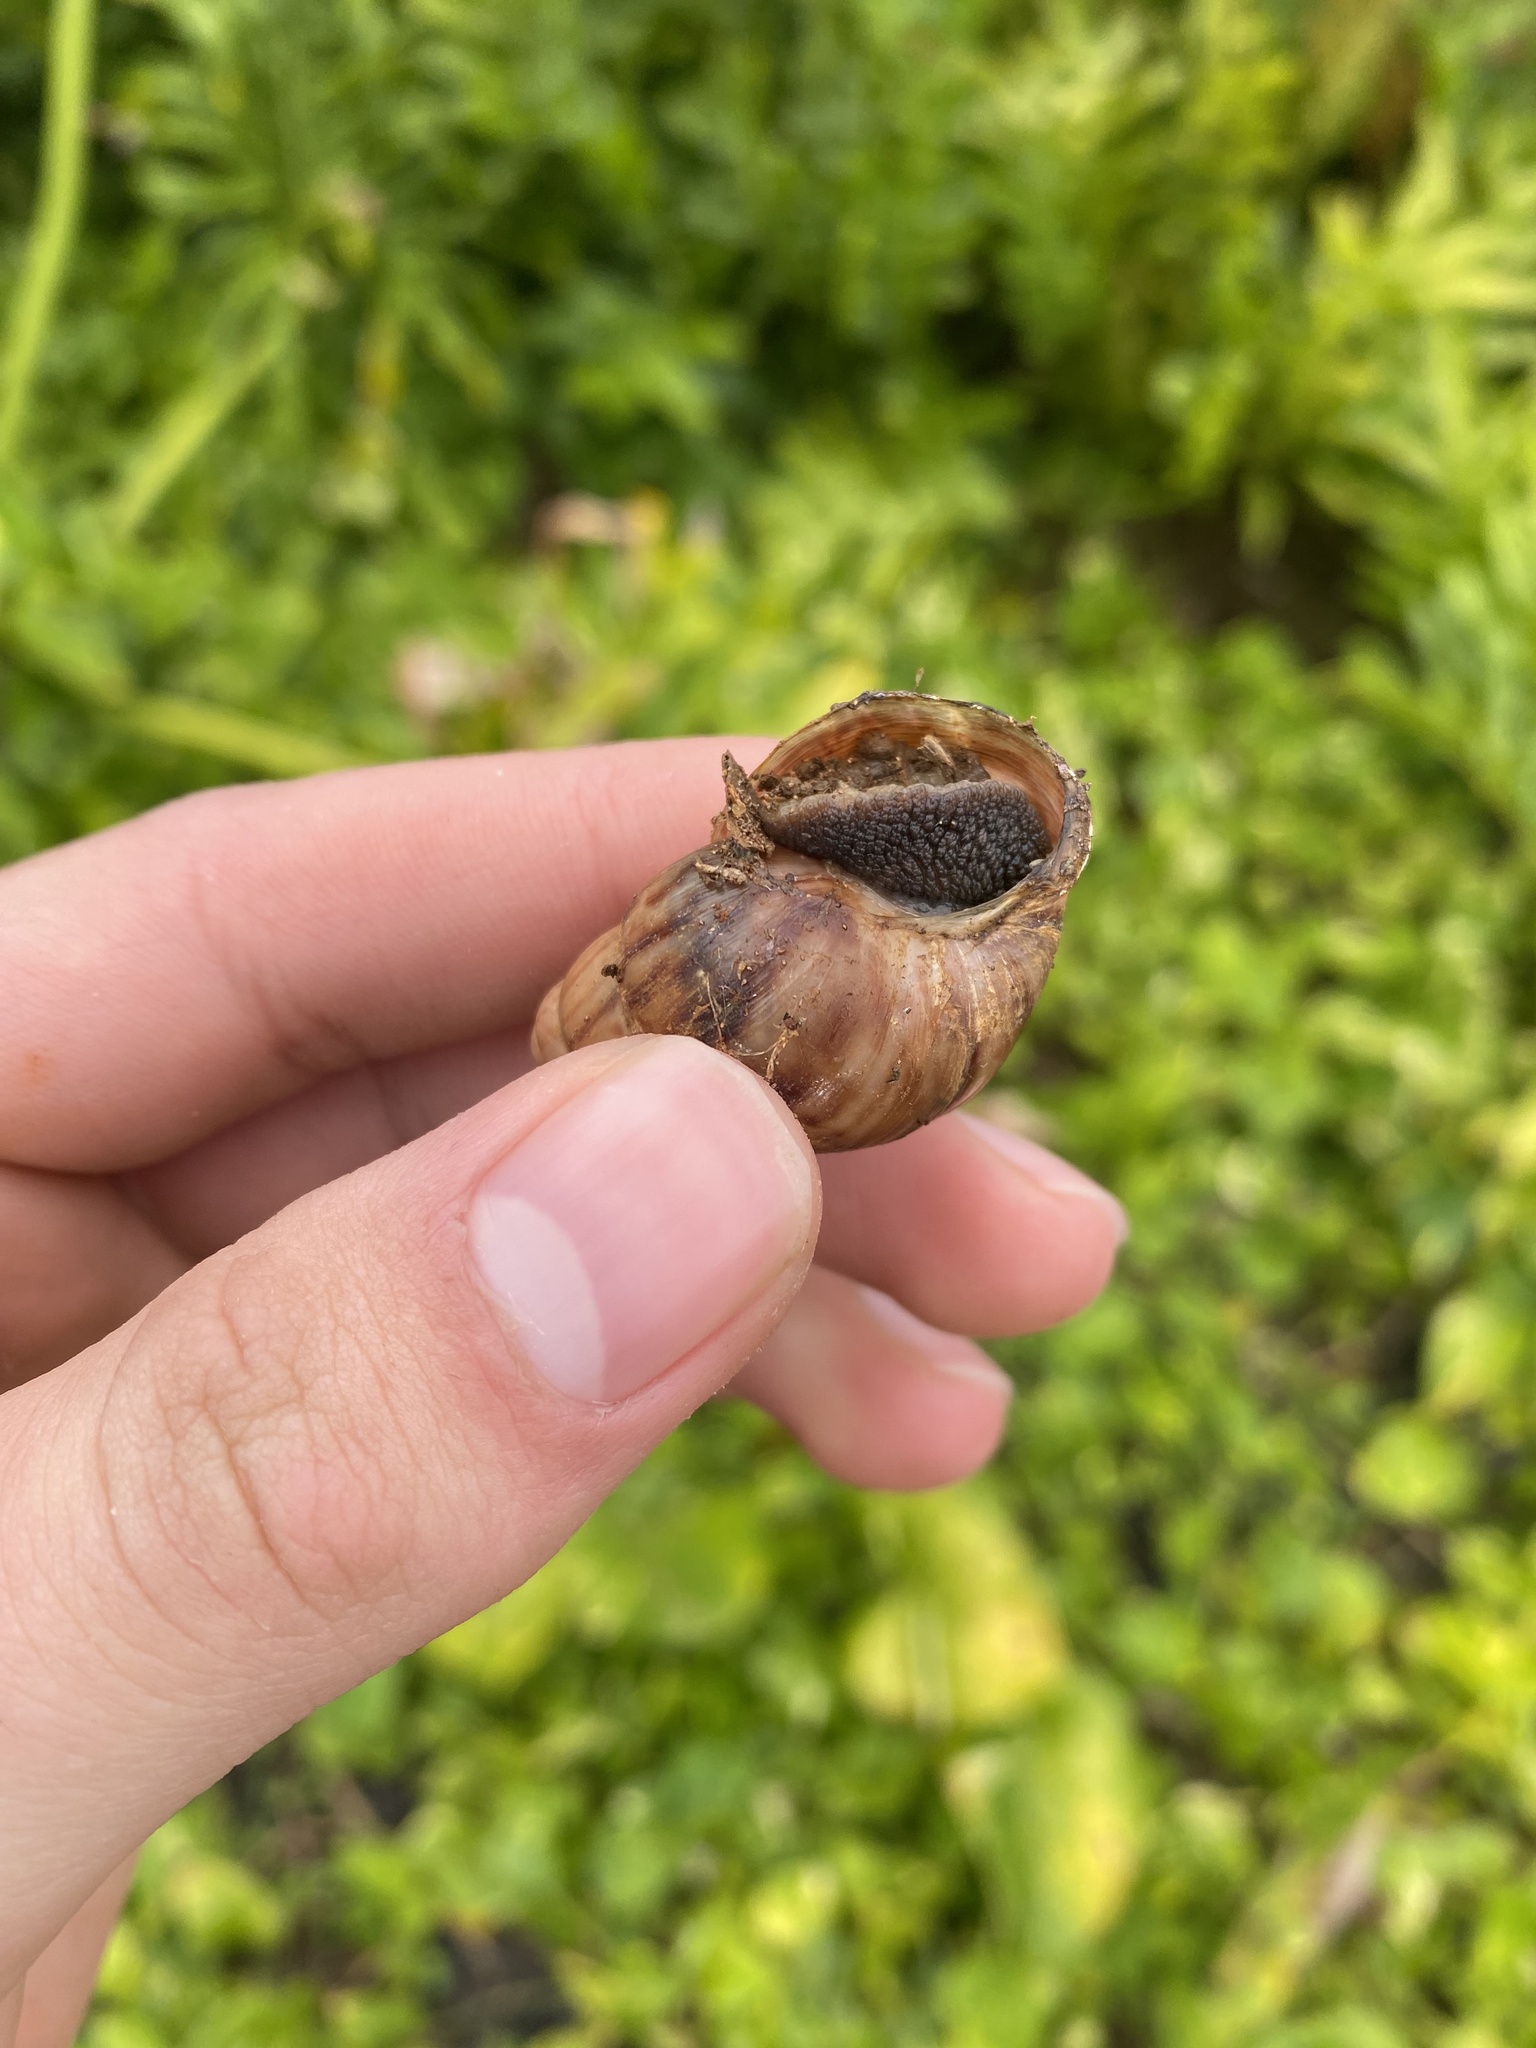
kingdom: Animalia
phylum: Mollusca
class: Gastropoda
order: Stylommatophora
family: Achatinidae
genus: Lissachatina
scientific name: Lissachatina fulica
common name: Giant african snail
